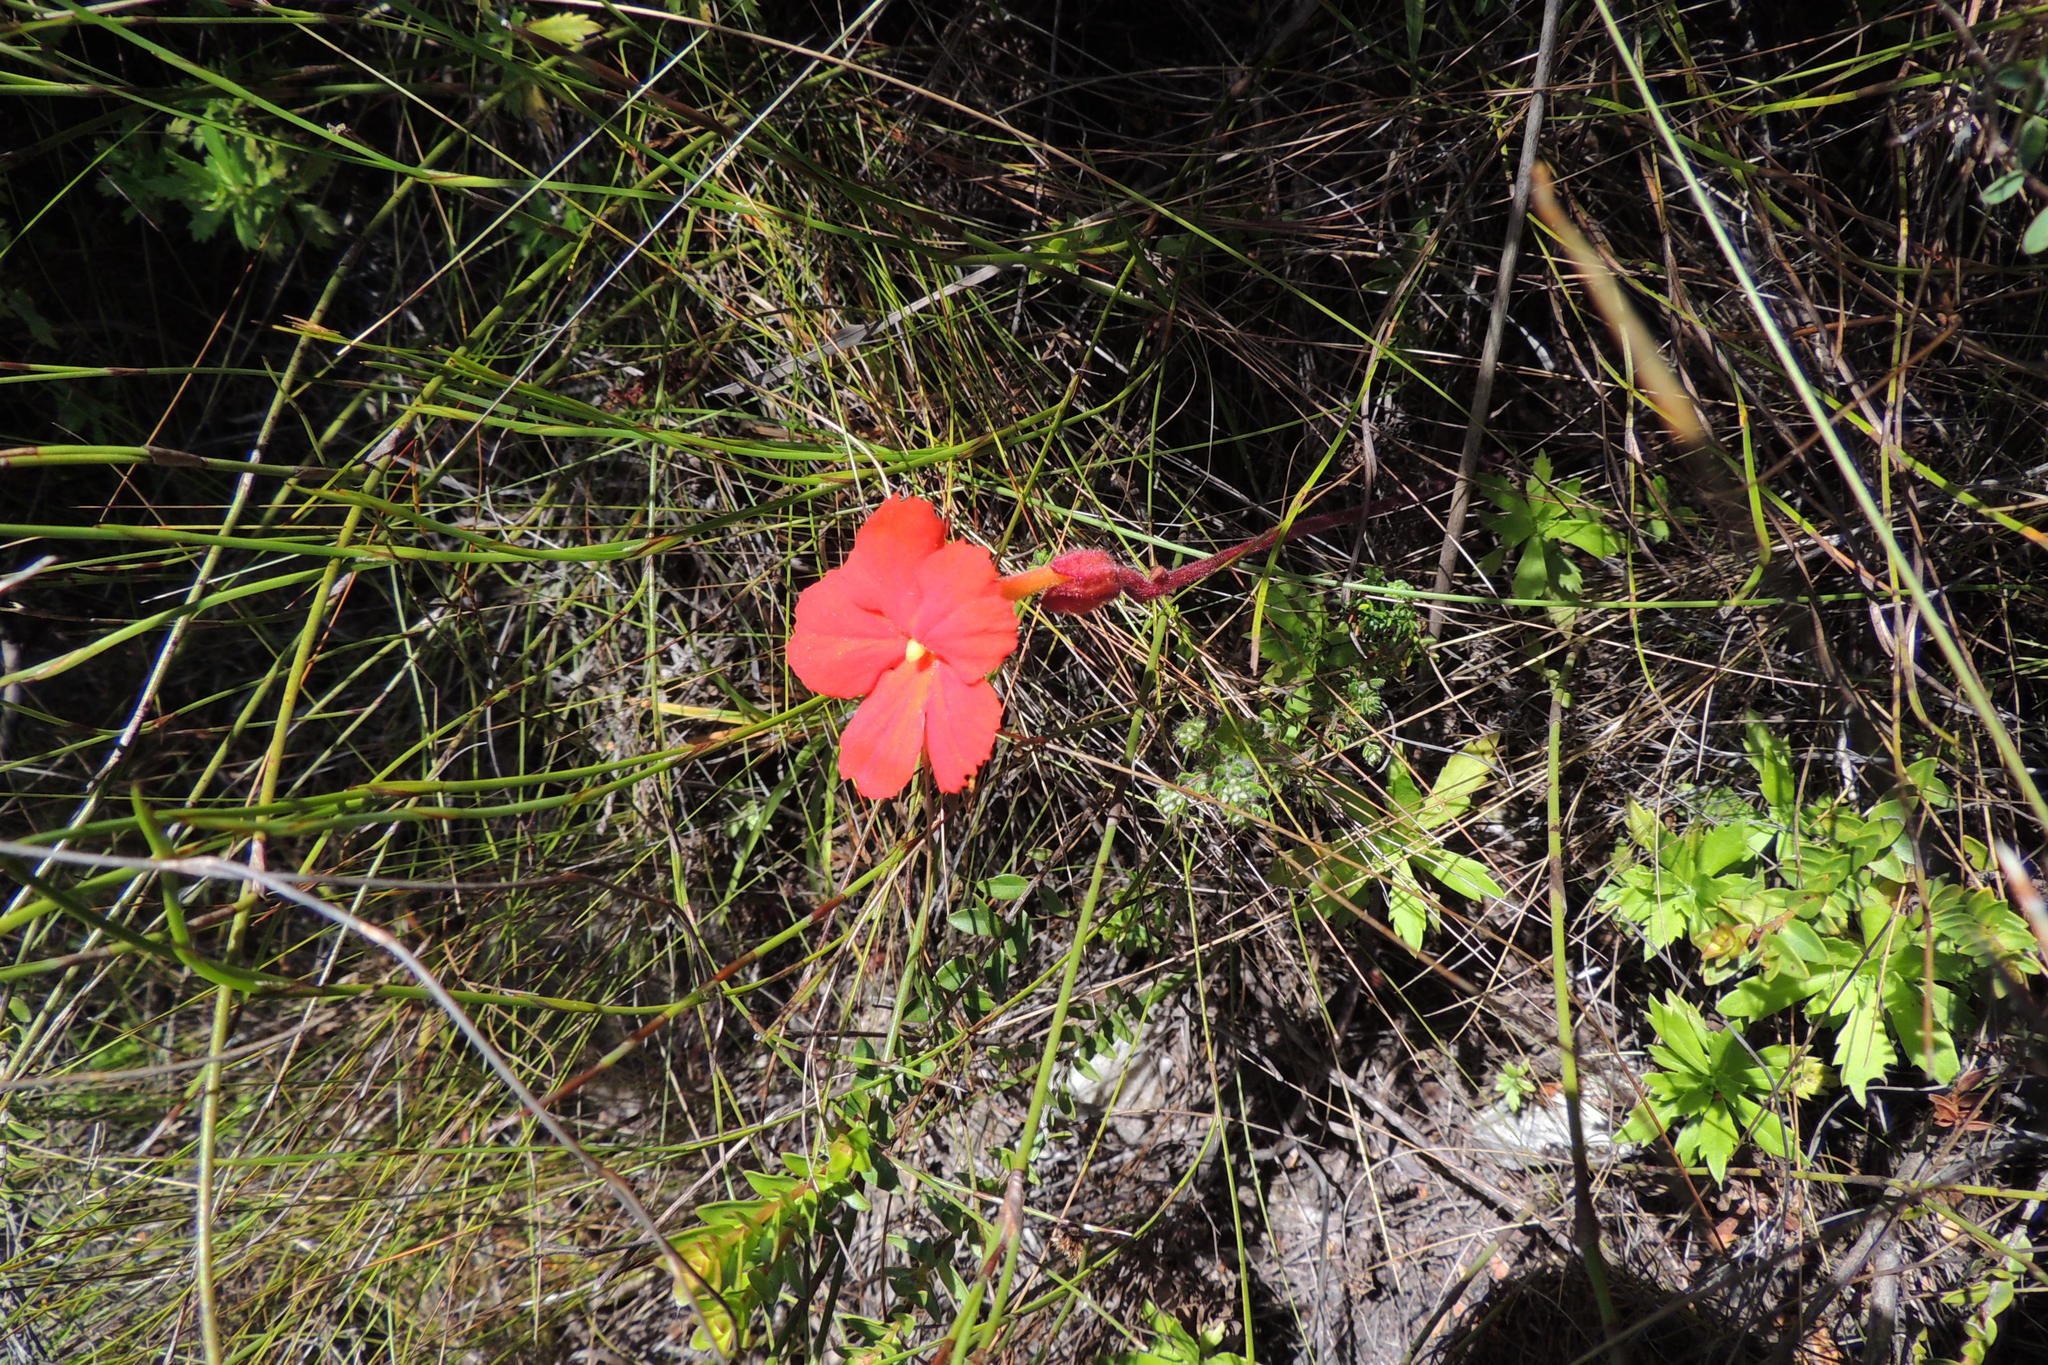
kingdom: Plantae
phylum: Tracheophyta
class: Magnoliopsida
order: Lamiales
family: Orobanchaceae
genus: Harveya
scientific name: Harveya stenosiphon
